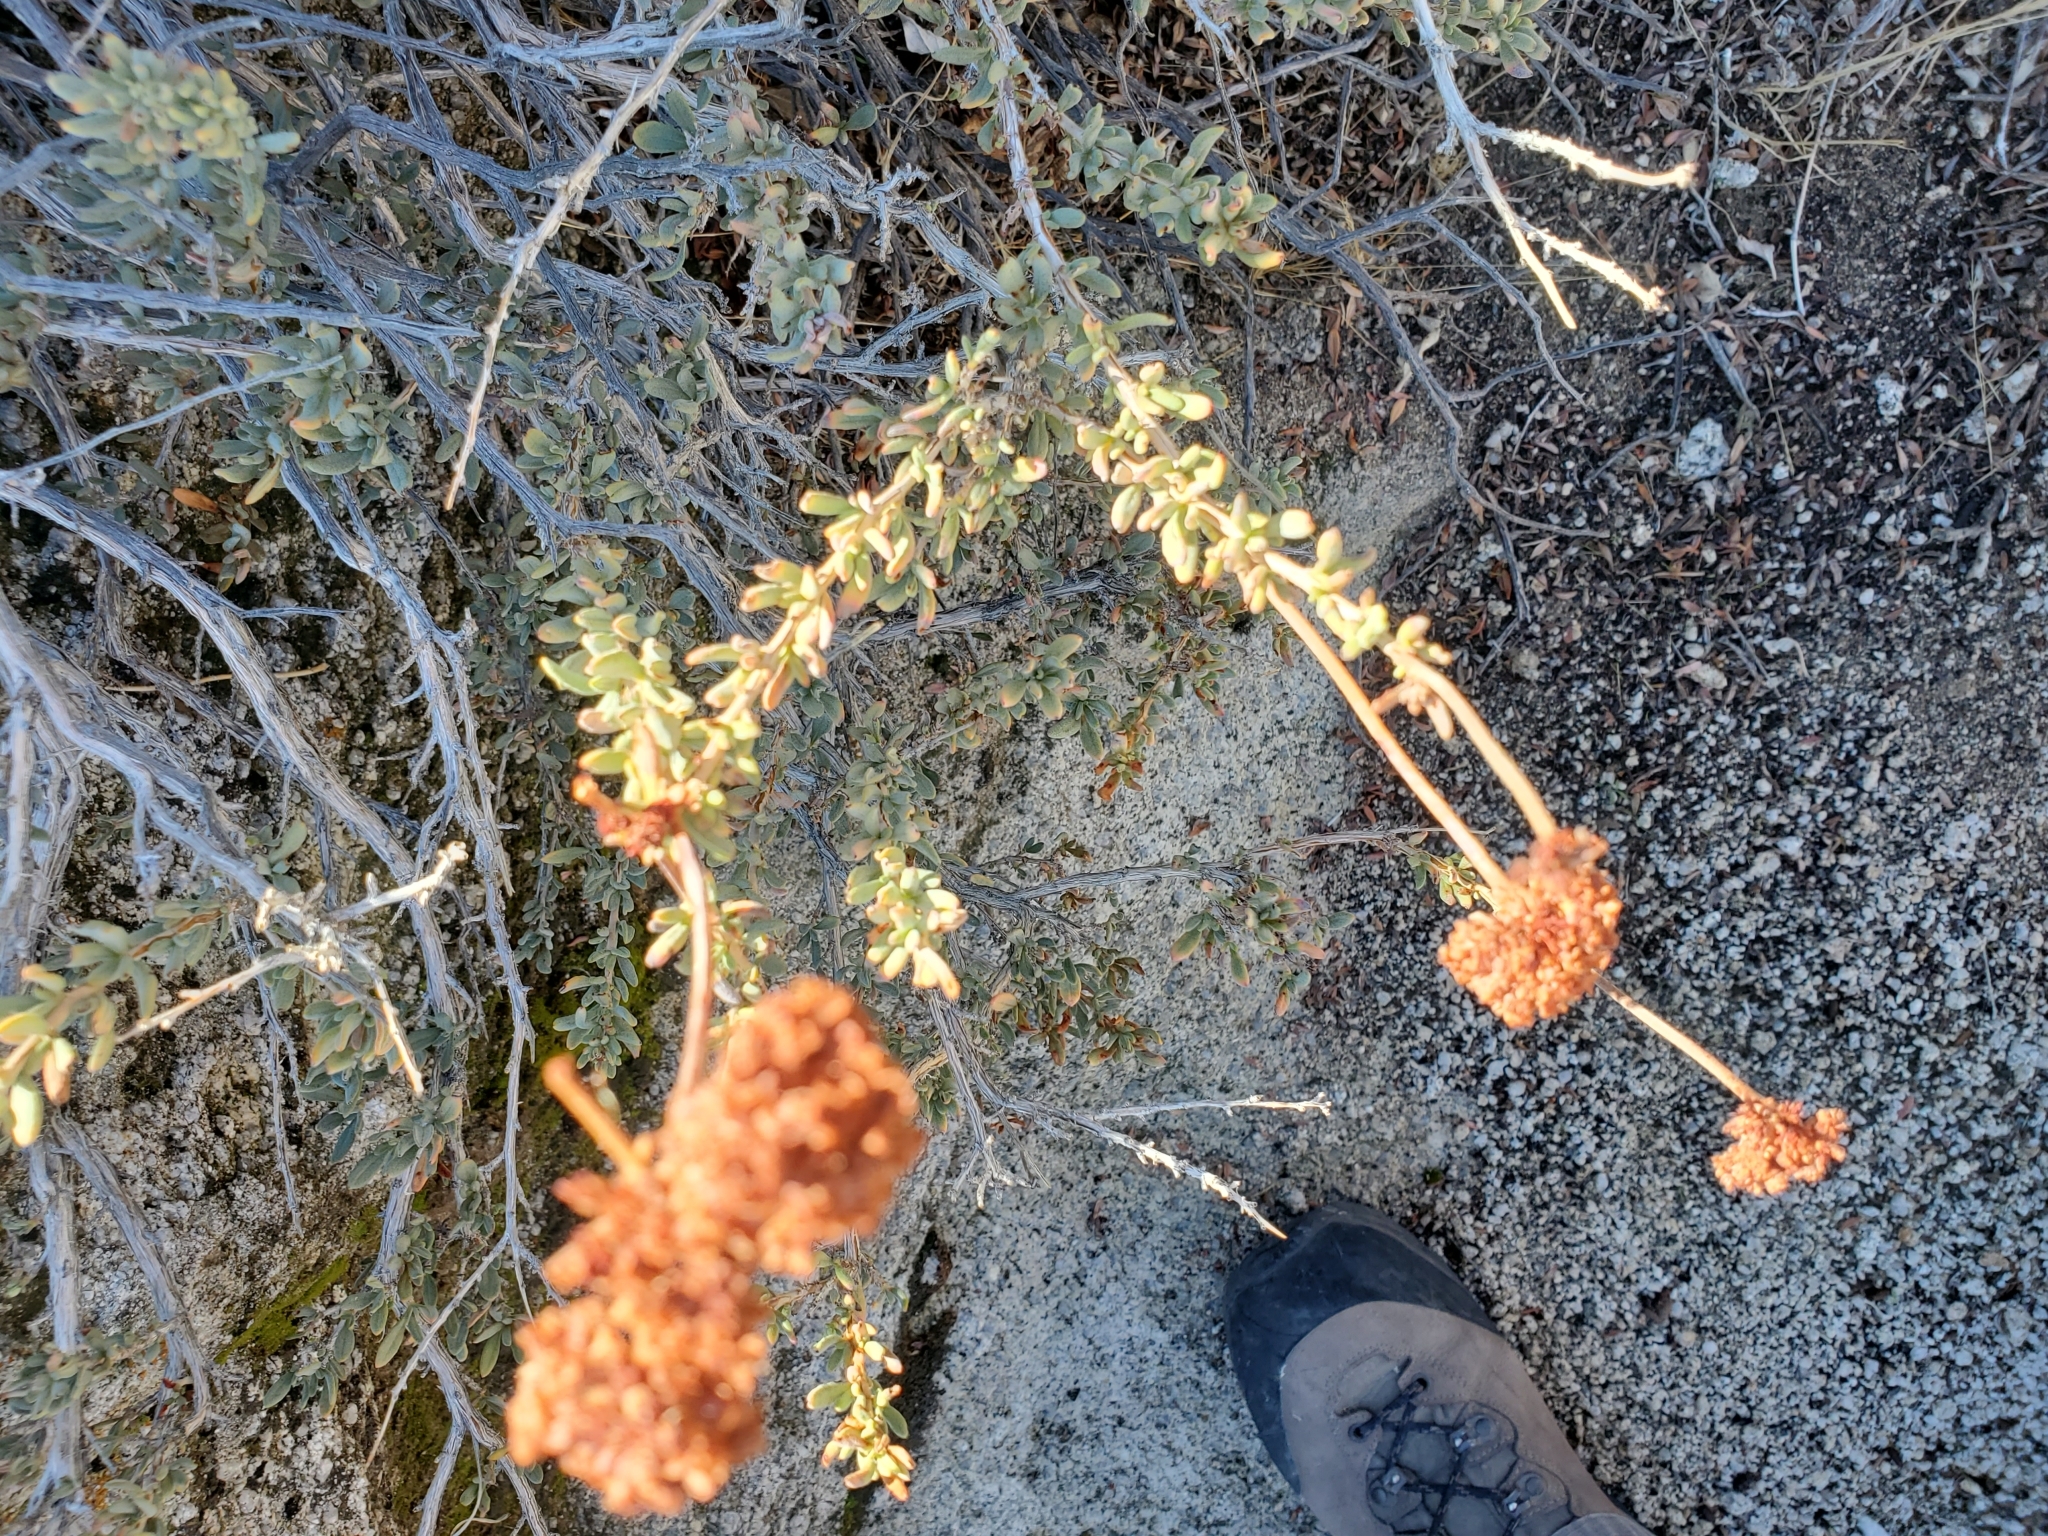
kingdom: Plantae
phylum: Tracheophyta
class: Magnoliopsida
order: Caryophyllales
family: Polygonaceae
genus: Eriogonum
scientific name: Eriogonum fasciculatum
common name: California wild buckwheat
